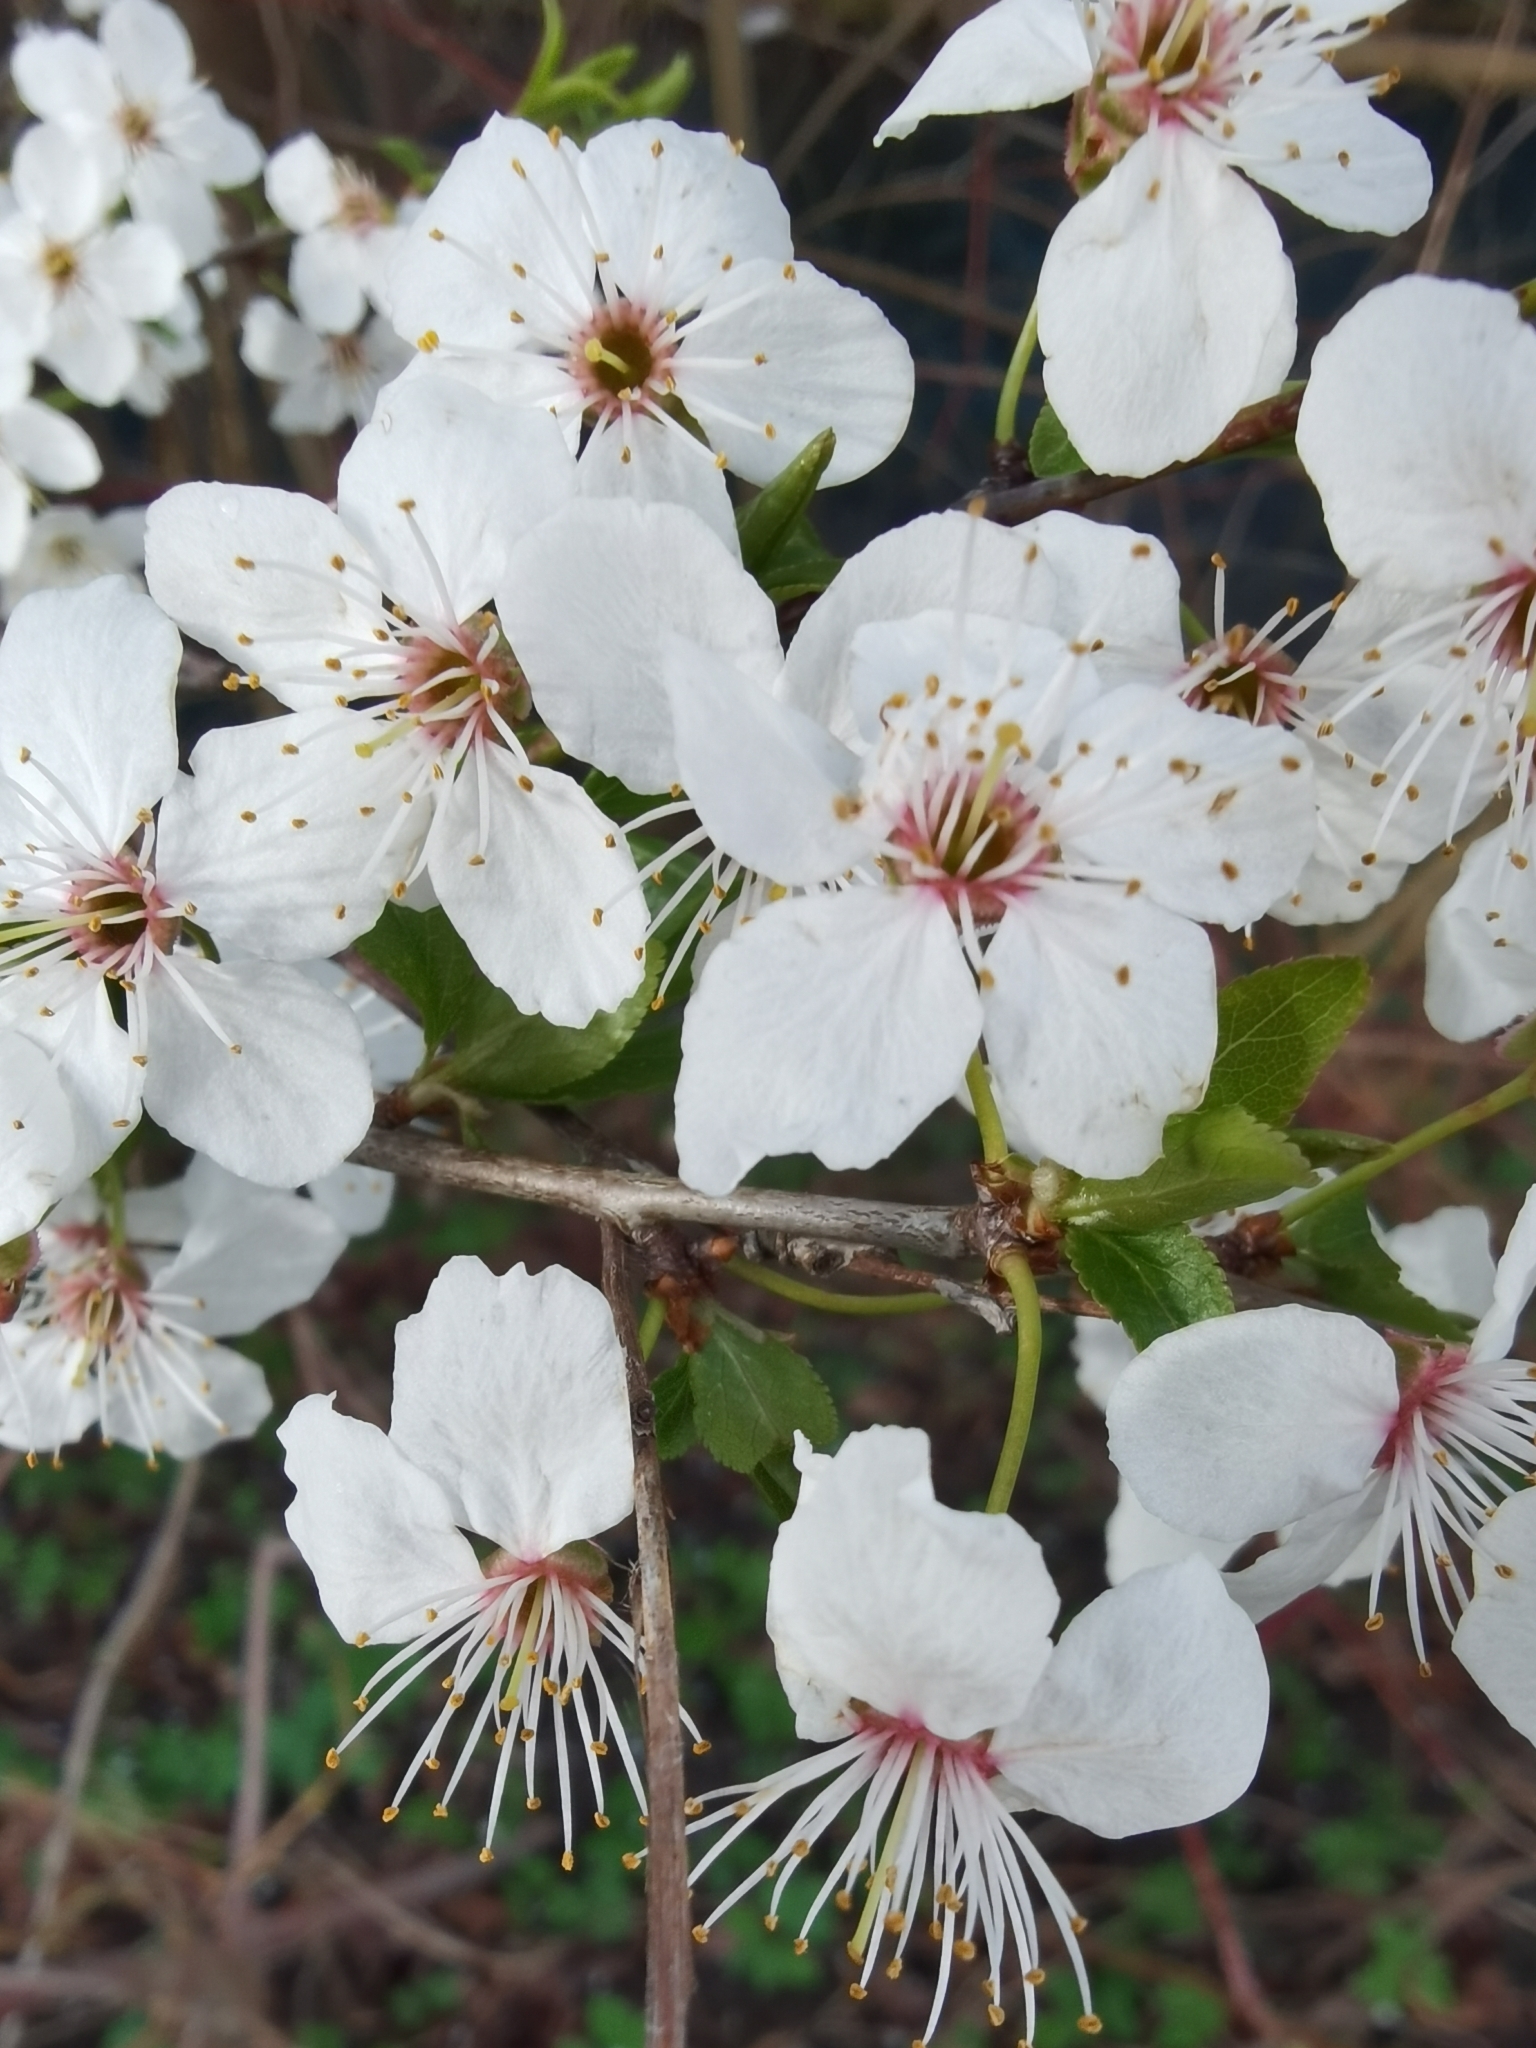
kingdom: Plantae
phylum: Tracheophyta
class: Magnoliopsida
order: Rosales
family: Rosaceae
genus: Prunus
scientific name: Prunus cerasifera
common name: Cherry plum
